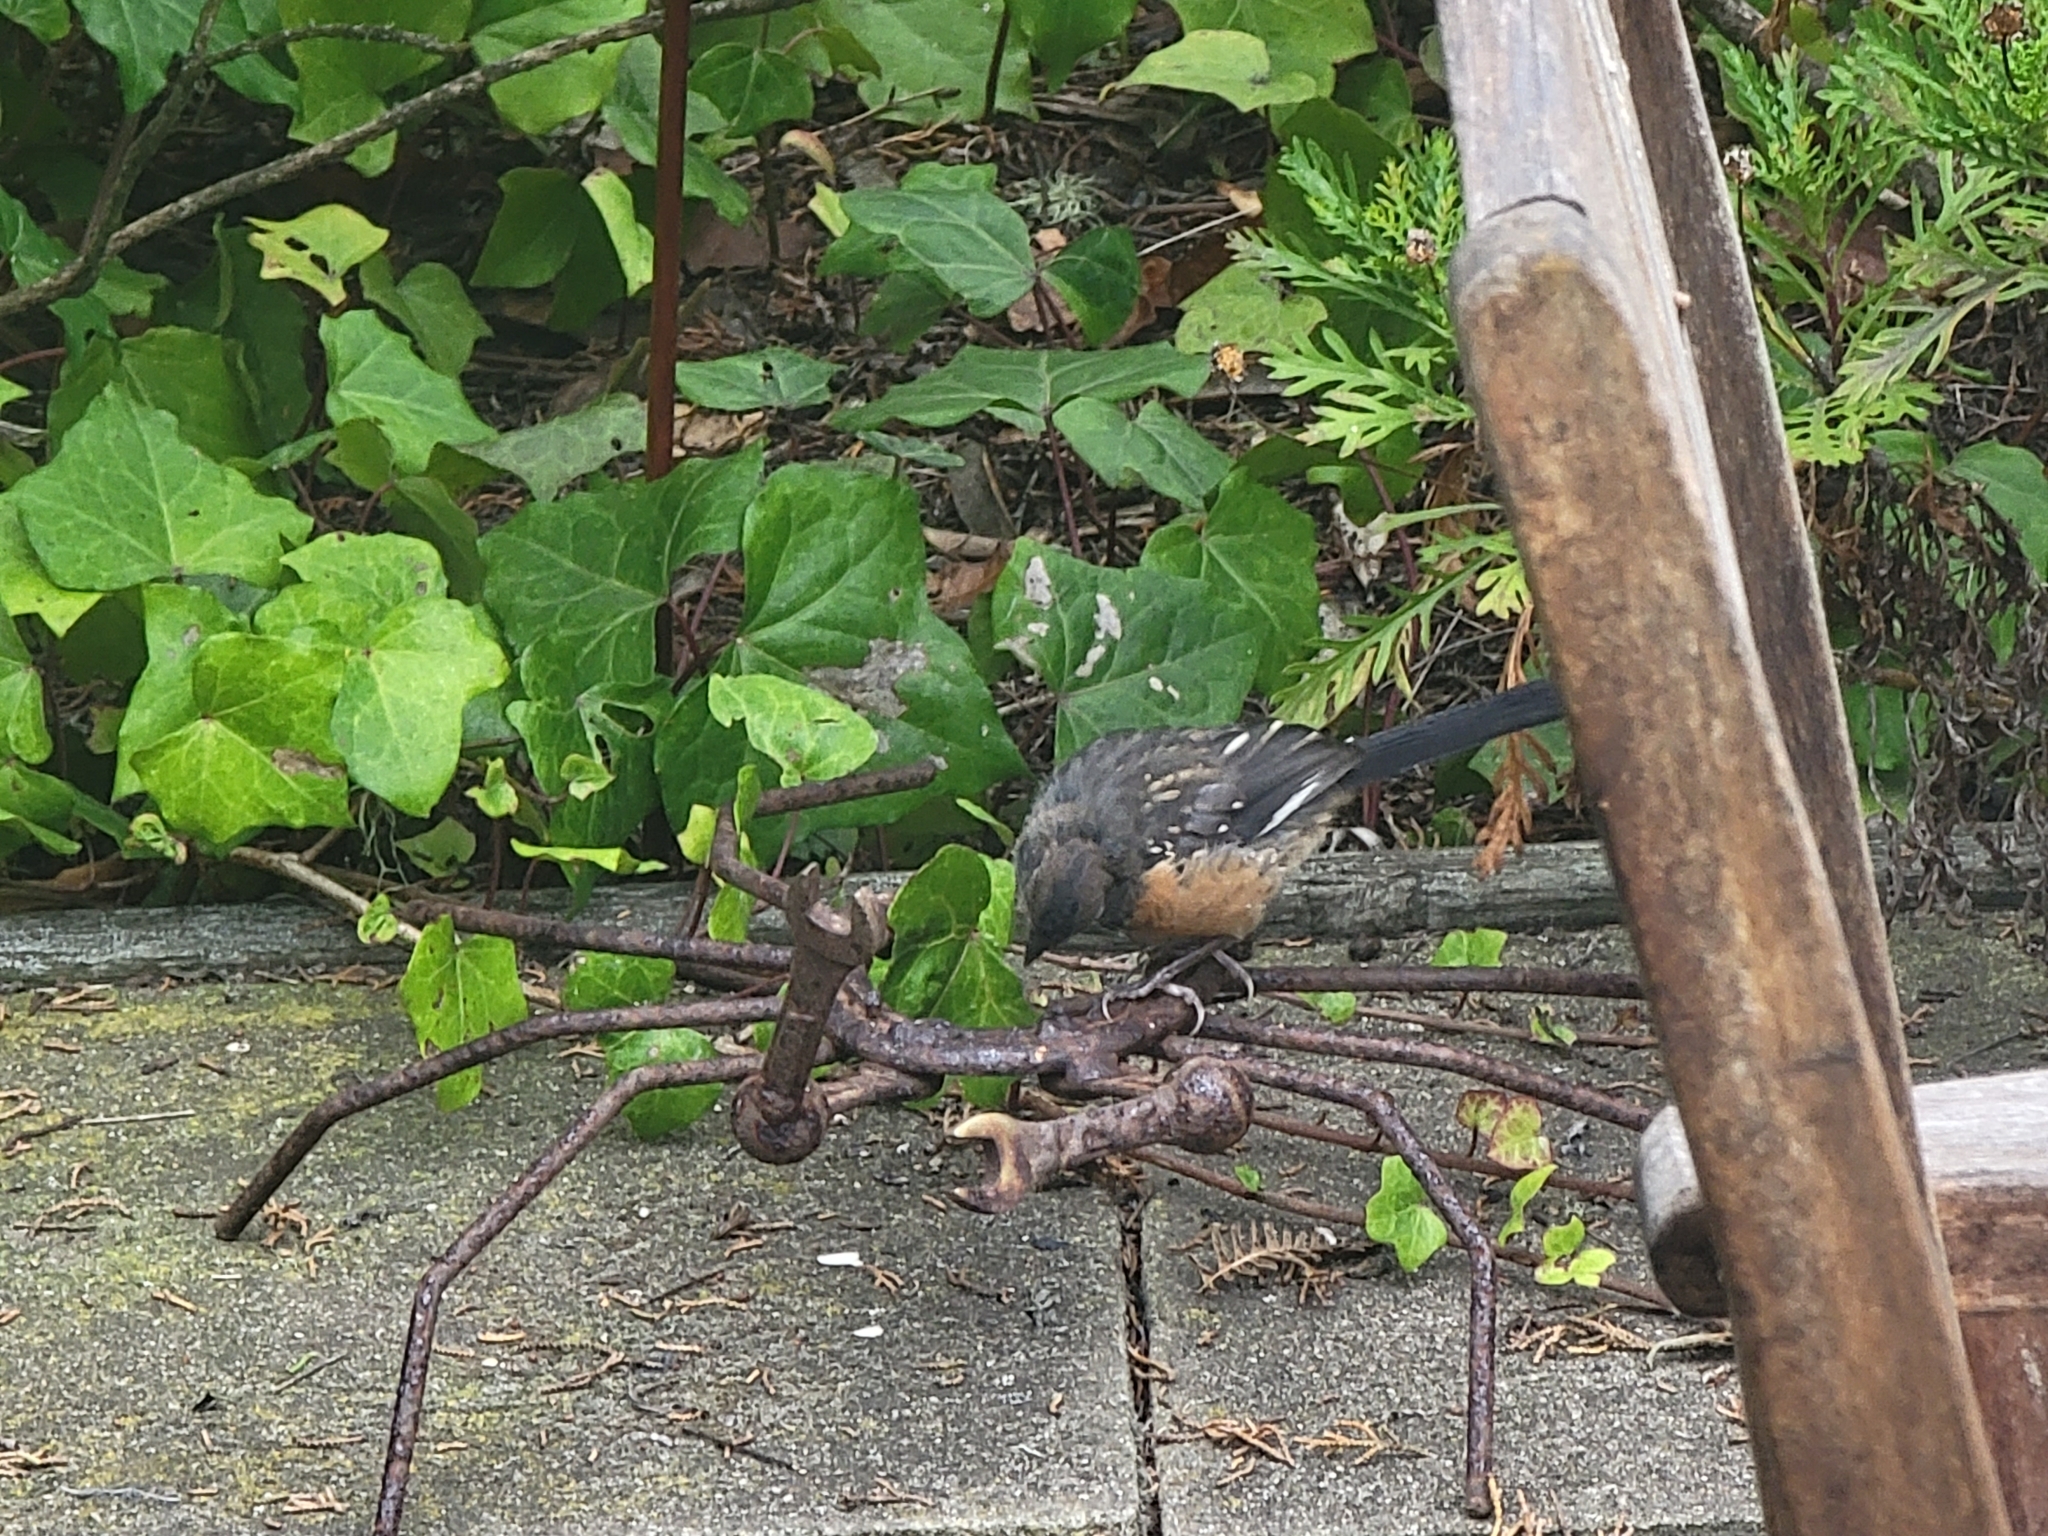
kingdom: Animalia
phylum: Chordata
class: Aves
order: Passeriformes
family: Passerellidae
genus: Pipilo
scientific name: Pipilo maculatus
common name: Spotted towhee
